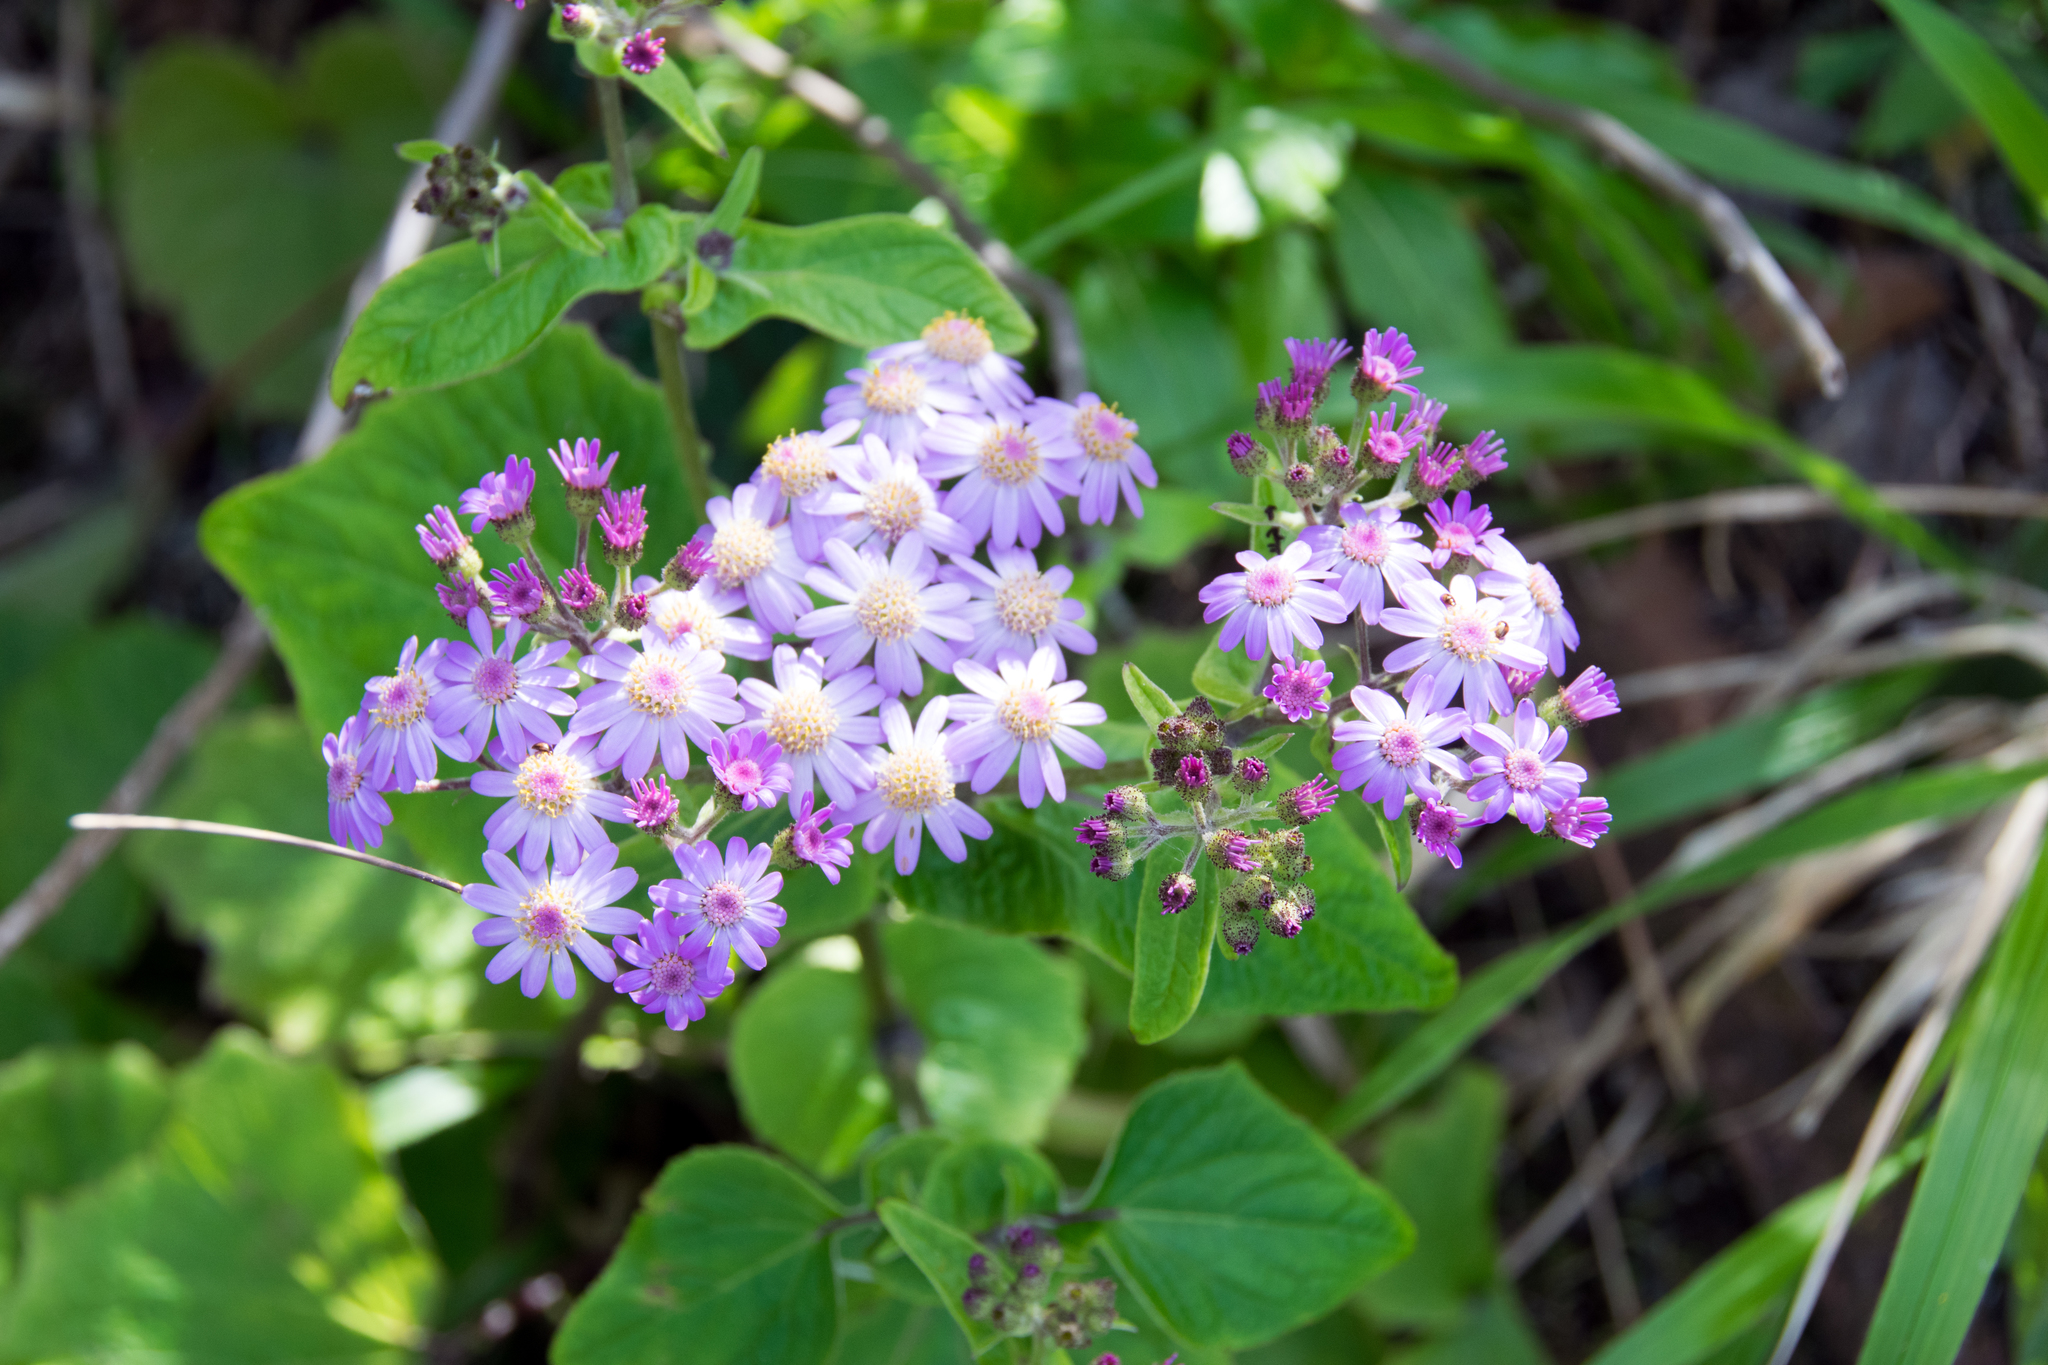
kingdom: Plantae
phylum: Tracheophyta
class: Magnoliopsida
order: Asterales
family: Asteraceae
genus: Pericallis
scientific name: Pericallis steetzii
